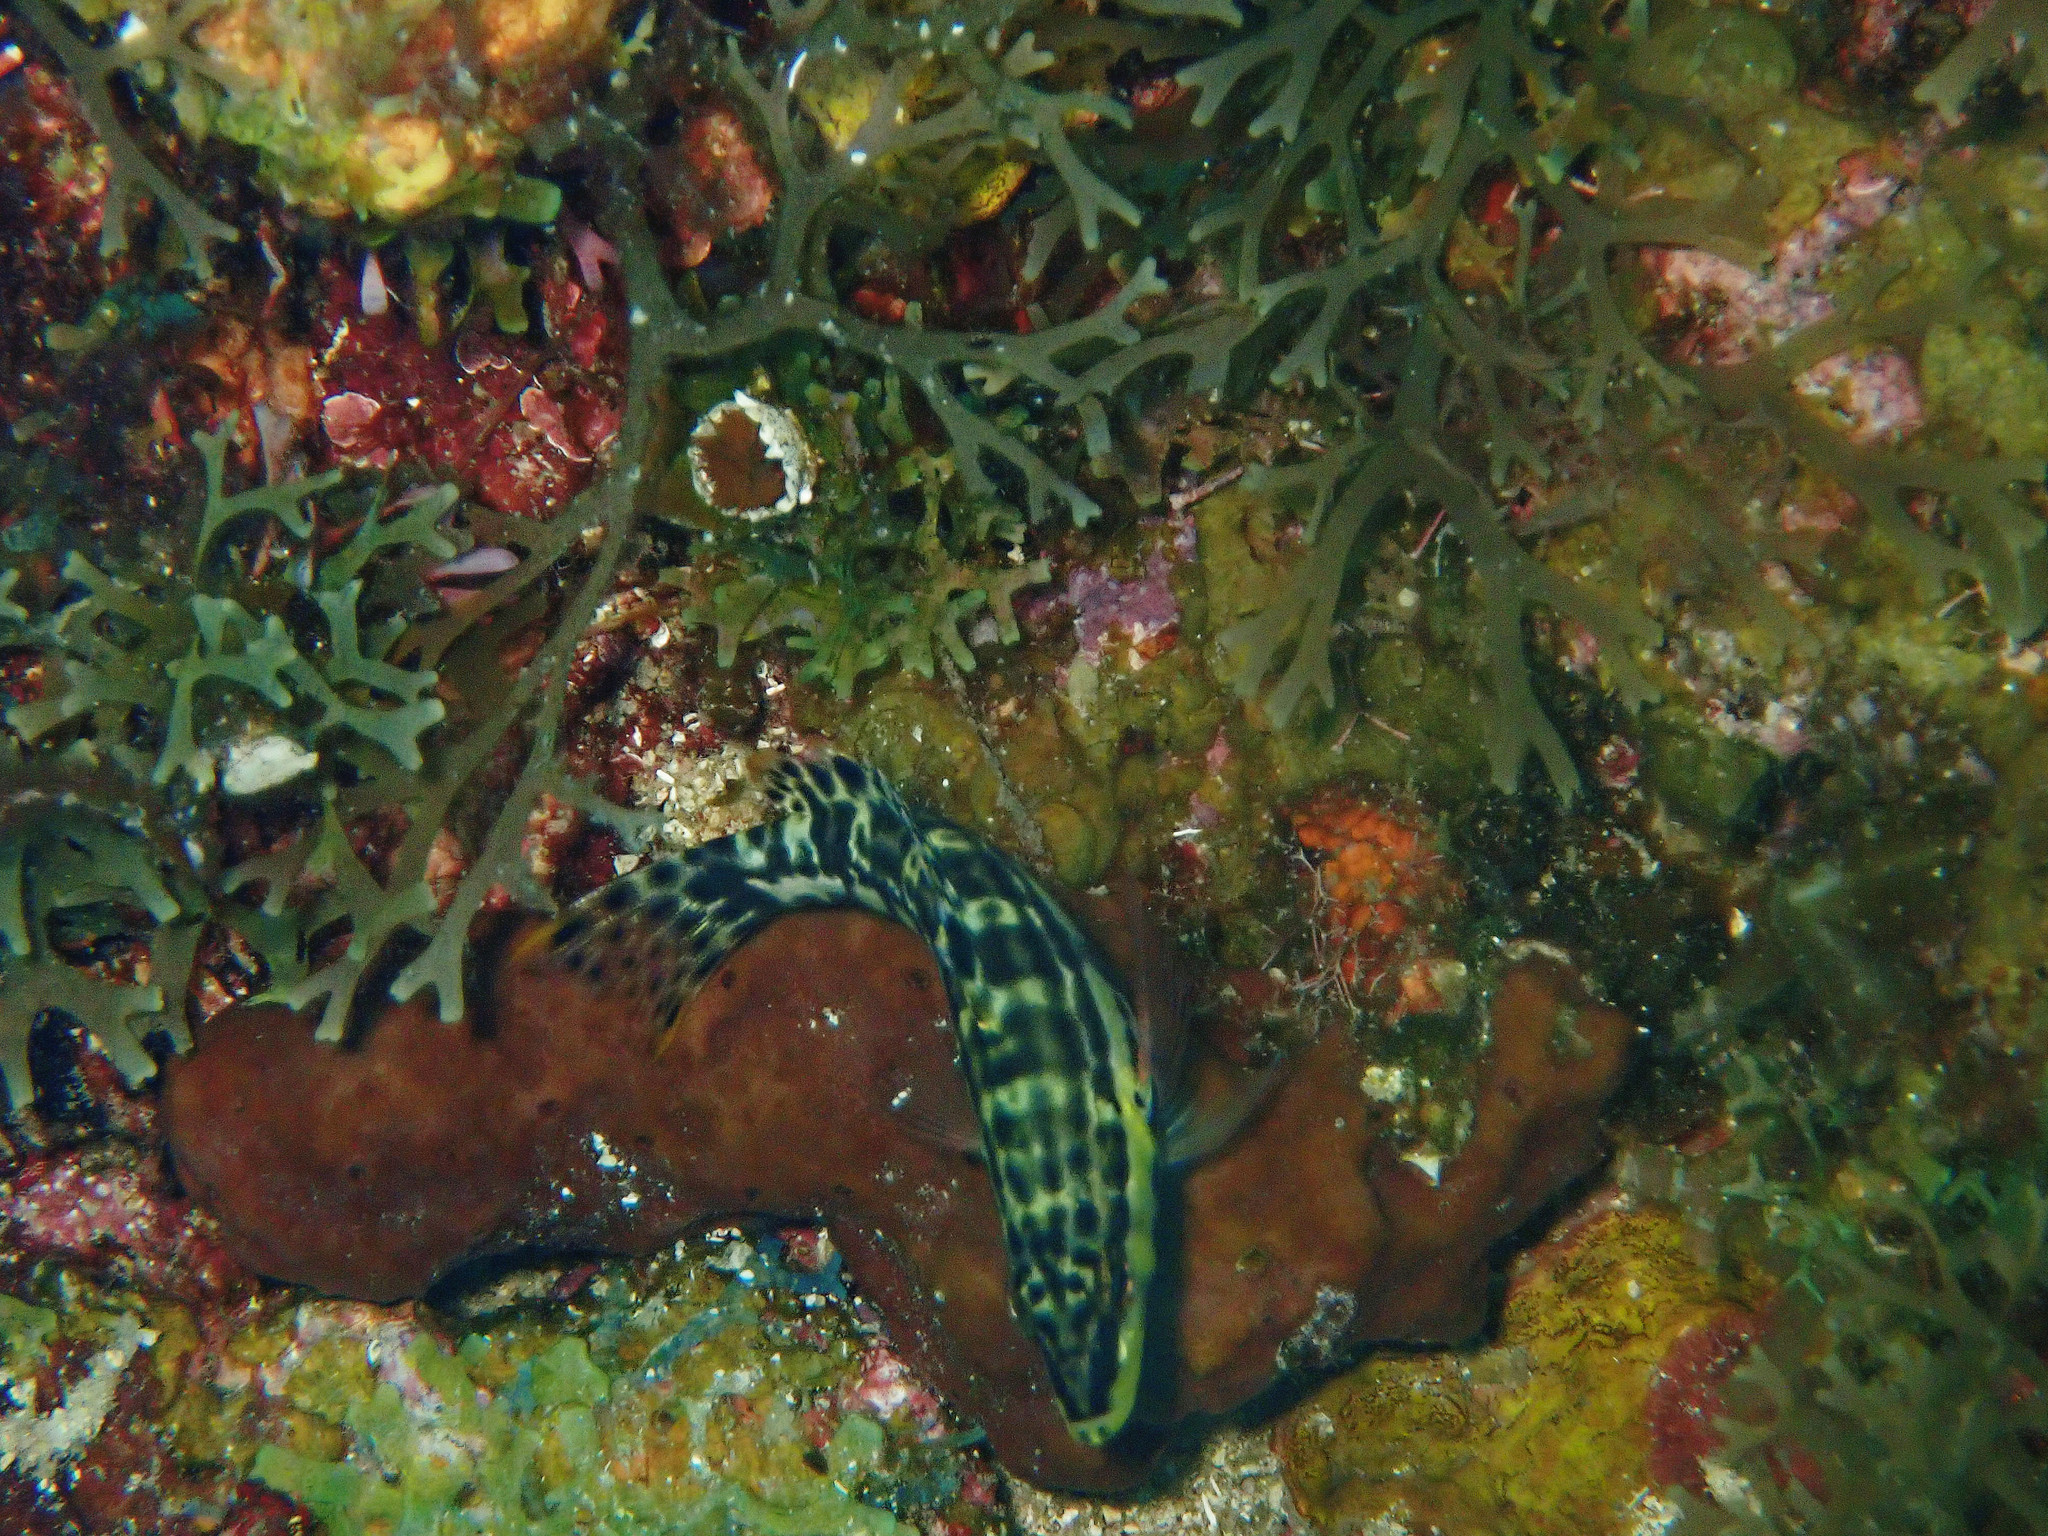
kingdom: Animalia
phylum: Chordata
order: Perciformes
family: Serranidae
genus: Serranus
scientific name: Serranus tigrinus
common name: Harlequin bass
